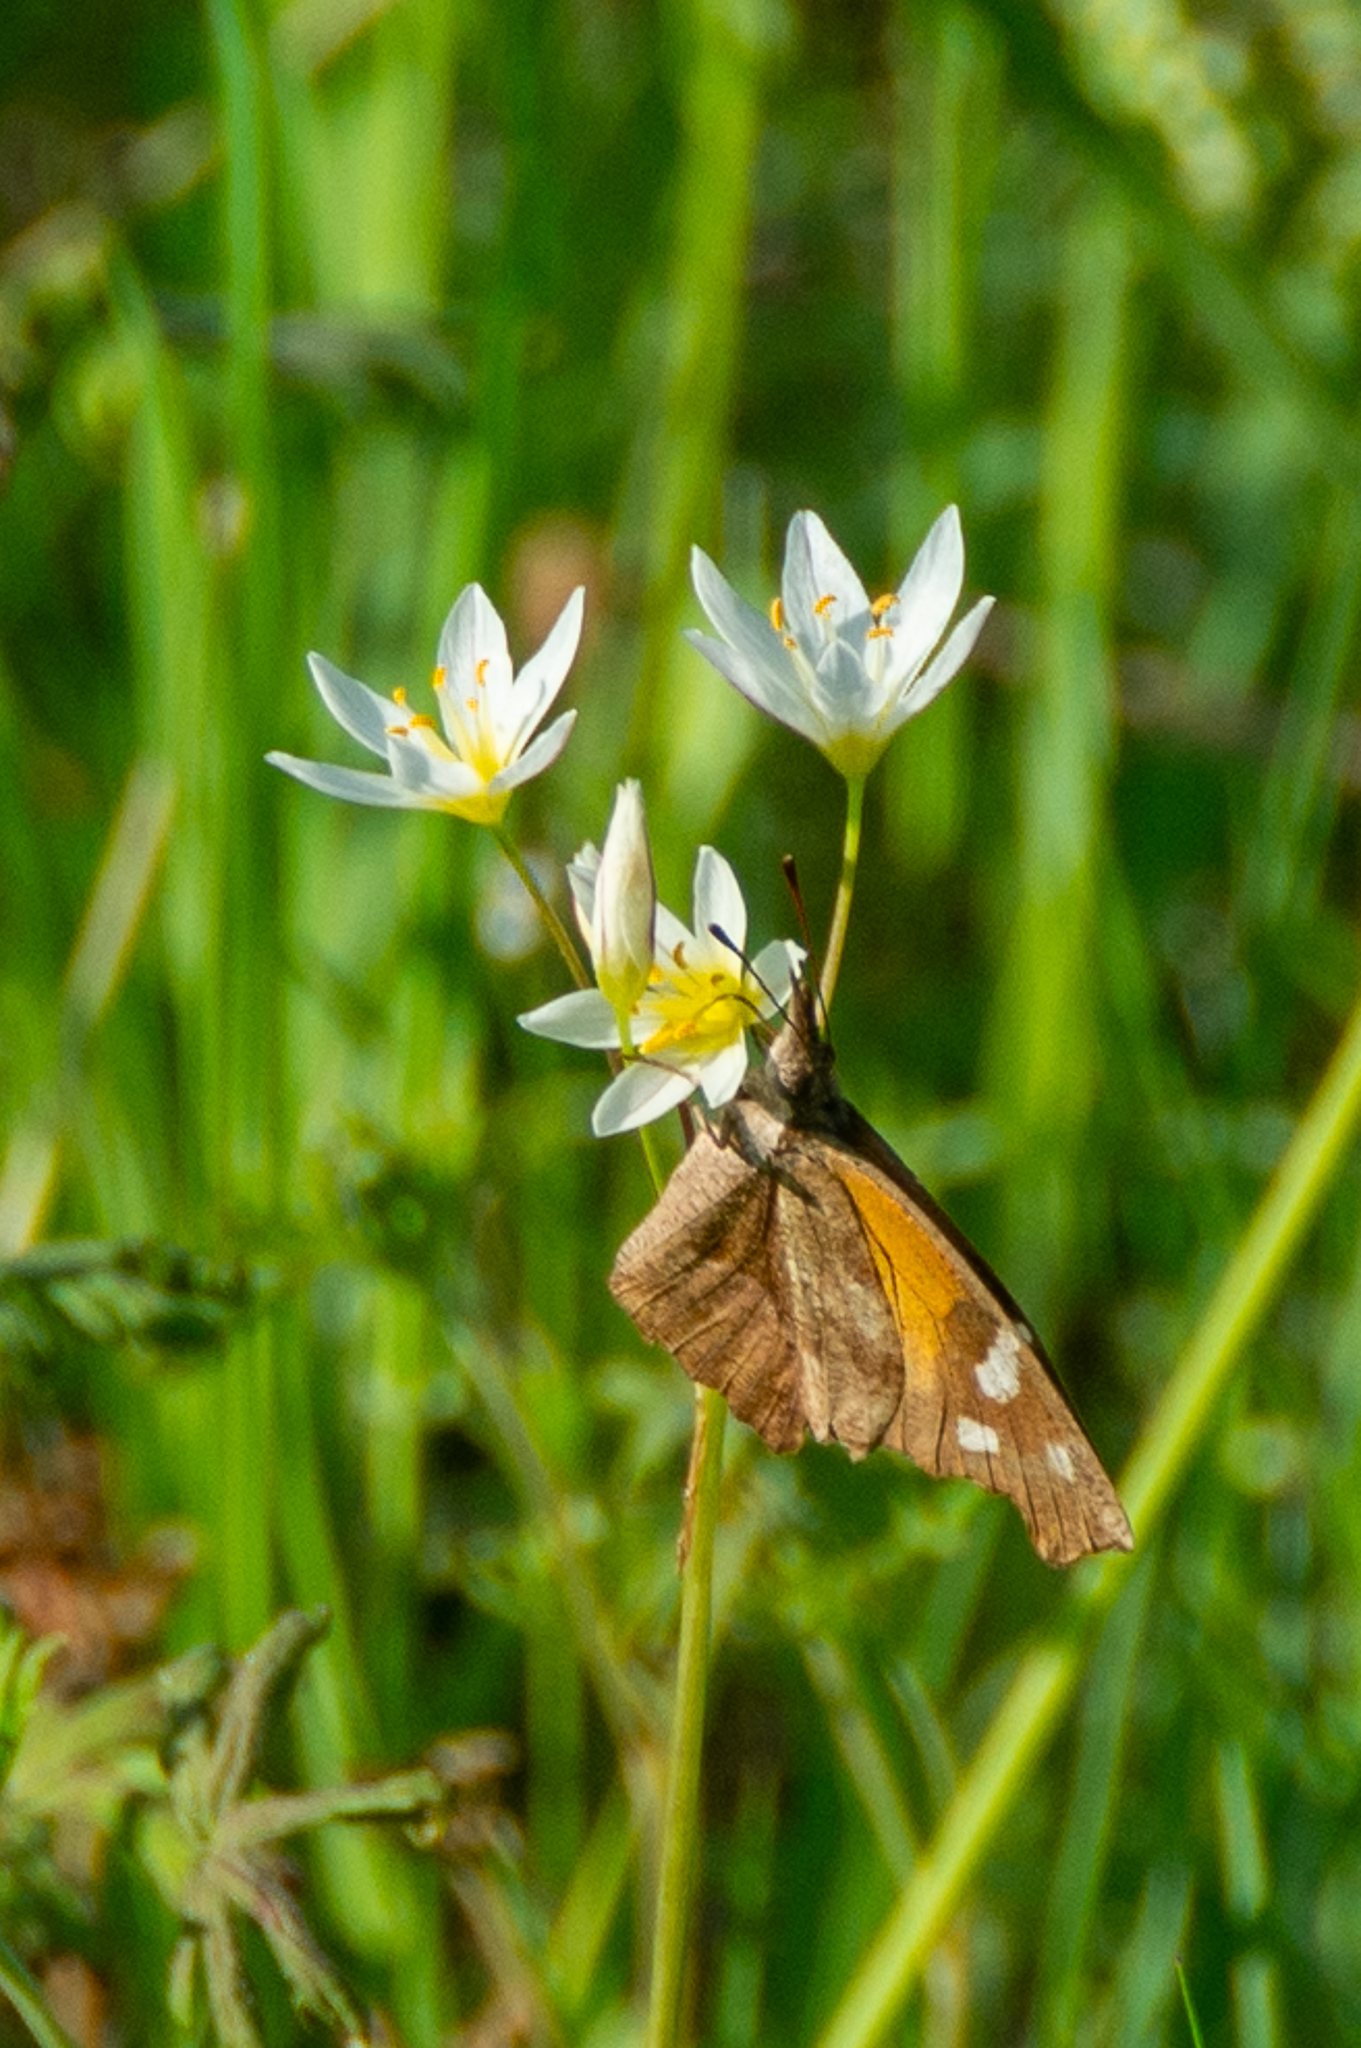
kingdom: Animalia
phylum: Arthropoda
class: Insecta
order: Lepidoptera
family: Nymphalidae
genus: Libytheana
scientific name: Libytheana carinenta
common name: American snout
